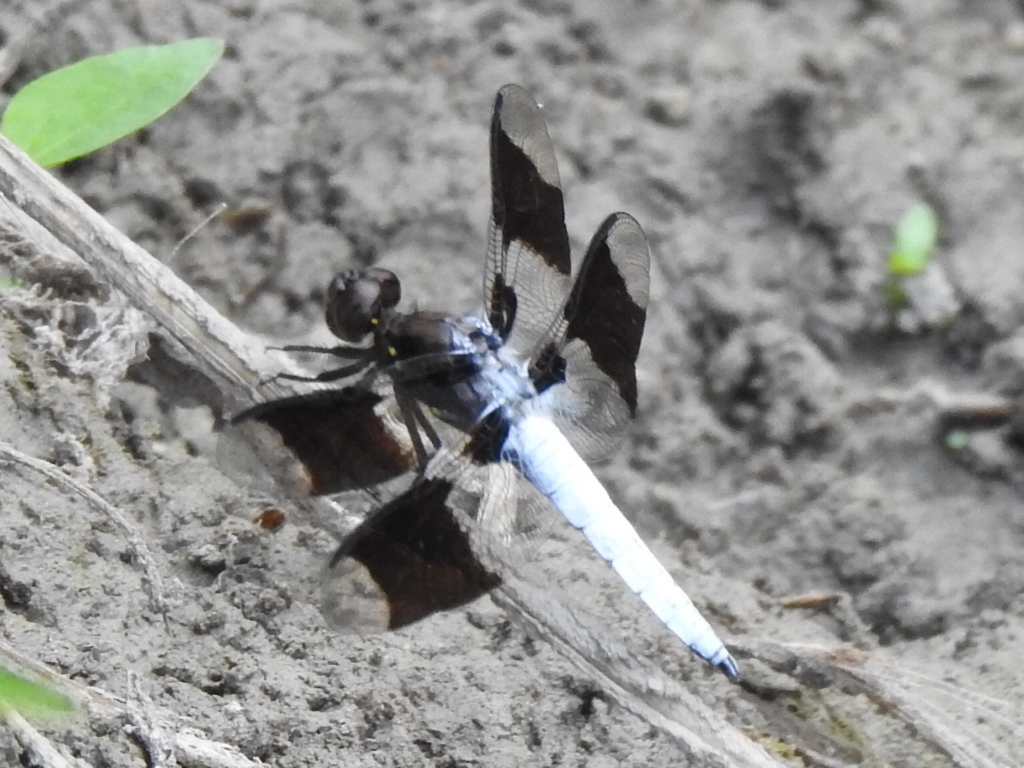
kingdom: Animalia
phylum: Arthropoda
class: Insecta
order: Odonata
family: Libellulidae
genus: Plathemis
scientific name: Plathemis lydia
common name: Common whitetail
